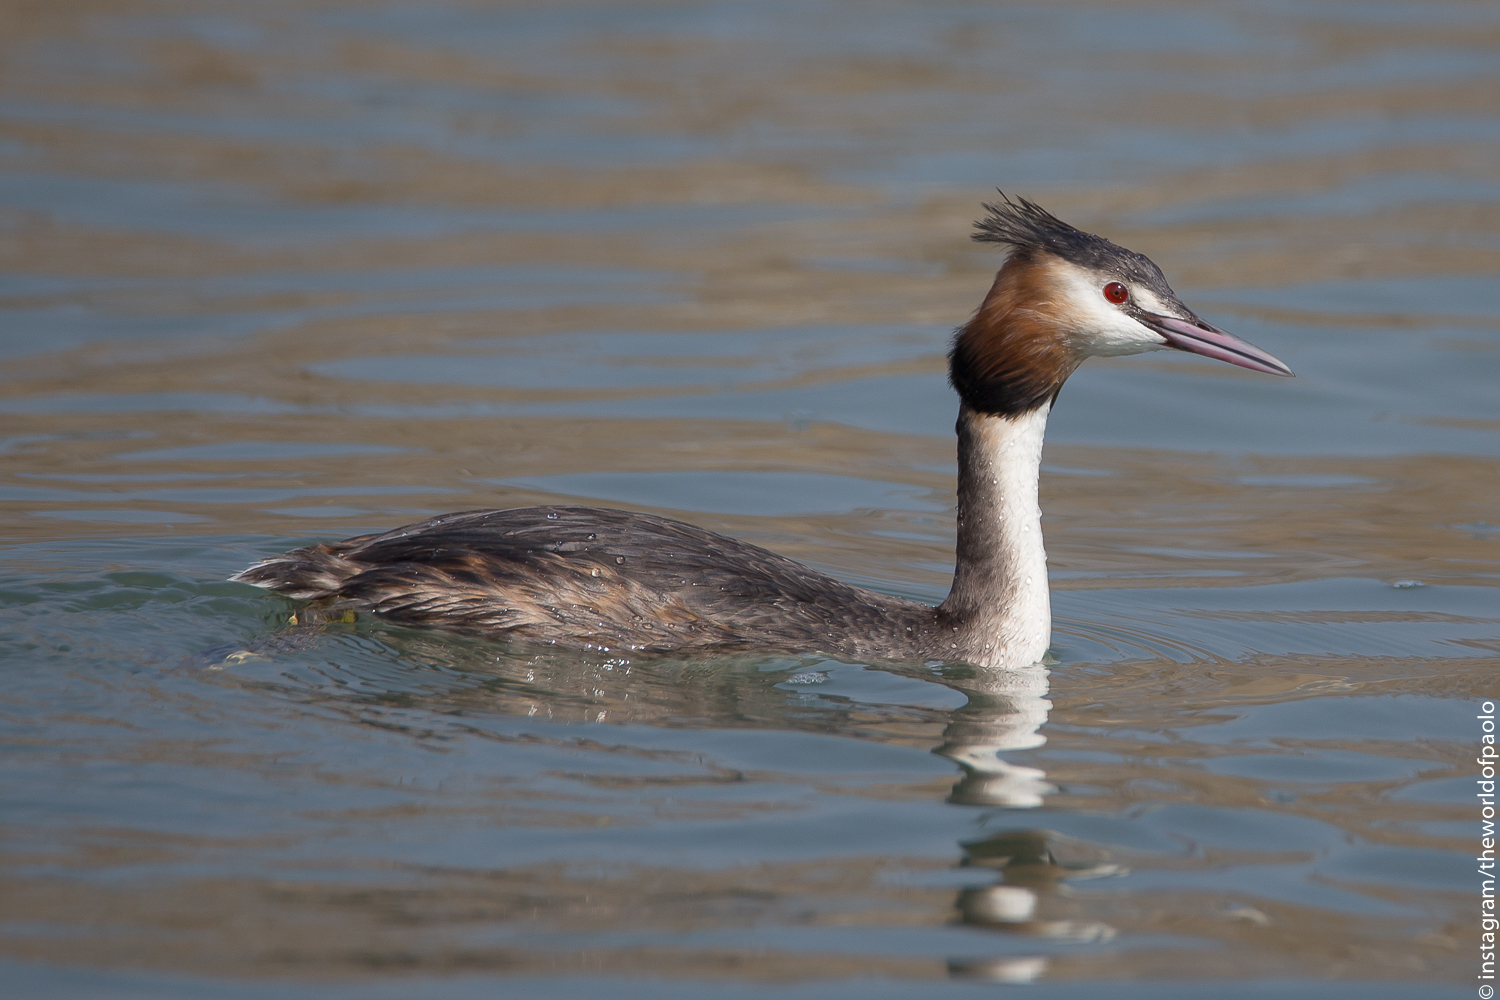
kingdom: Animalia
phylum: Chordata
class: Aves
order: Podicipediformes
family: Podicipedidae
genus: Podiceps
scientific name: Podiceps cristatus
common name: Great crested grebe
